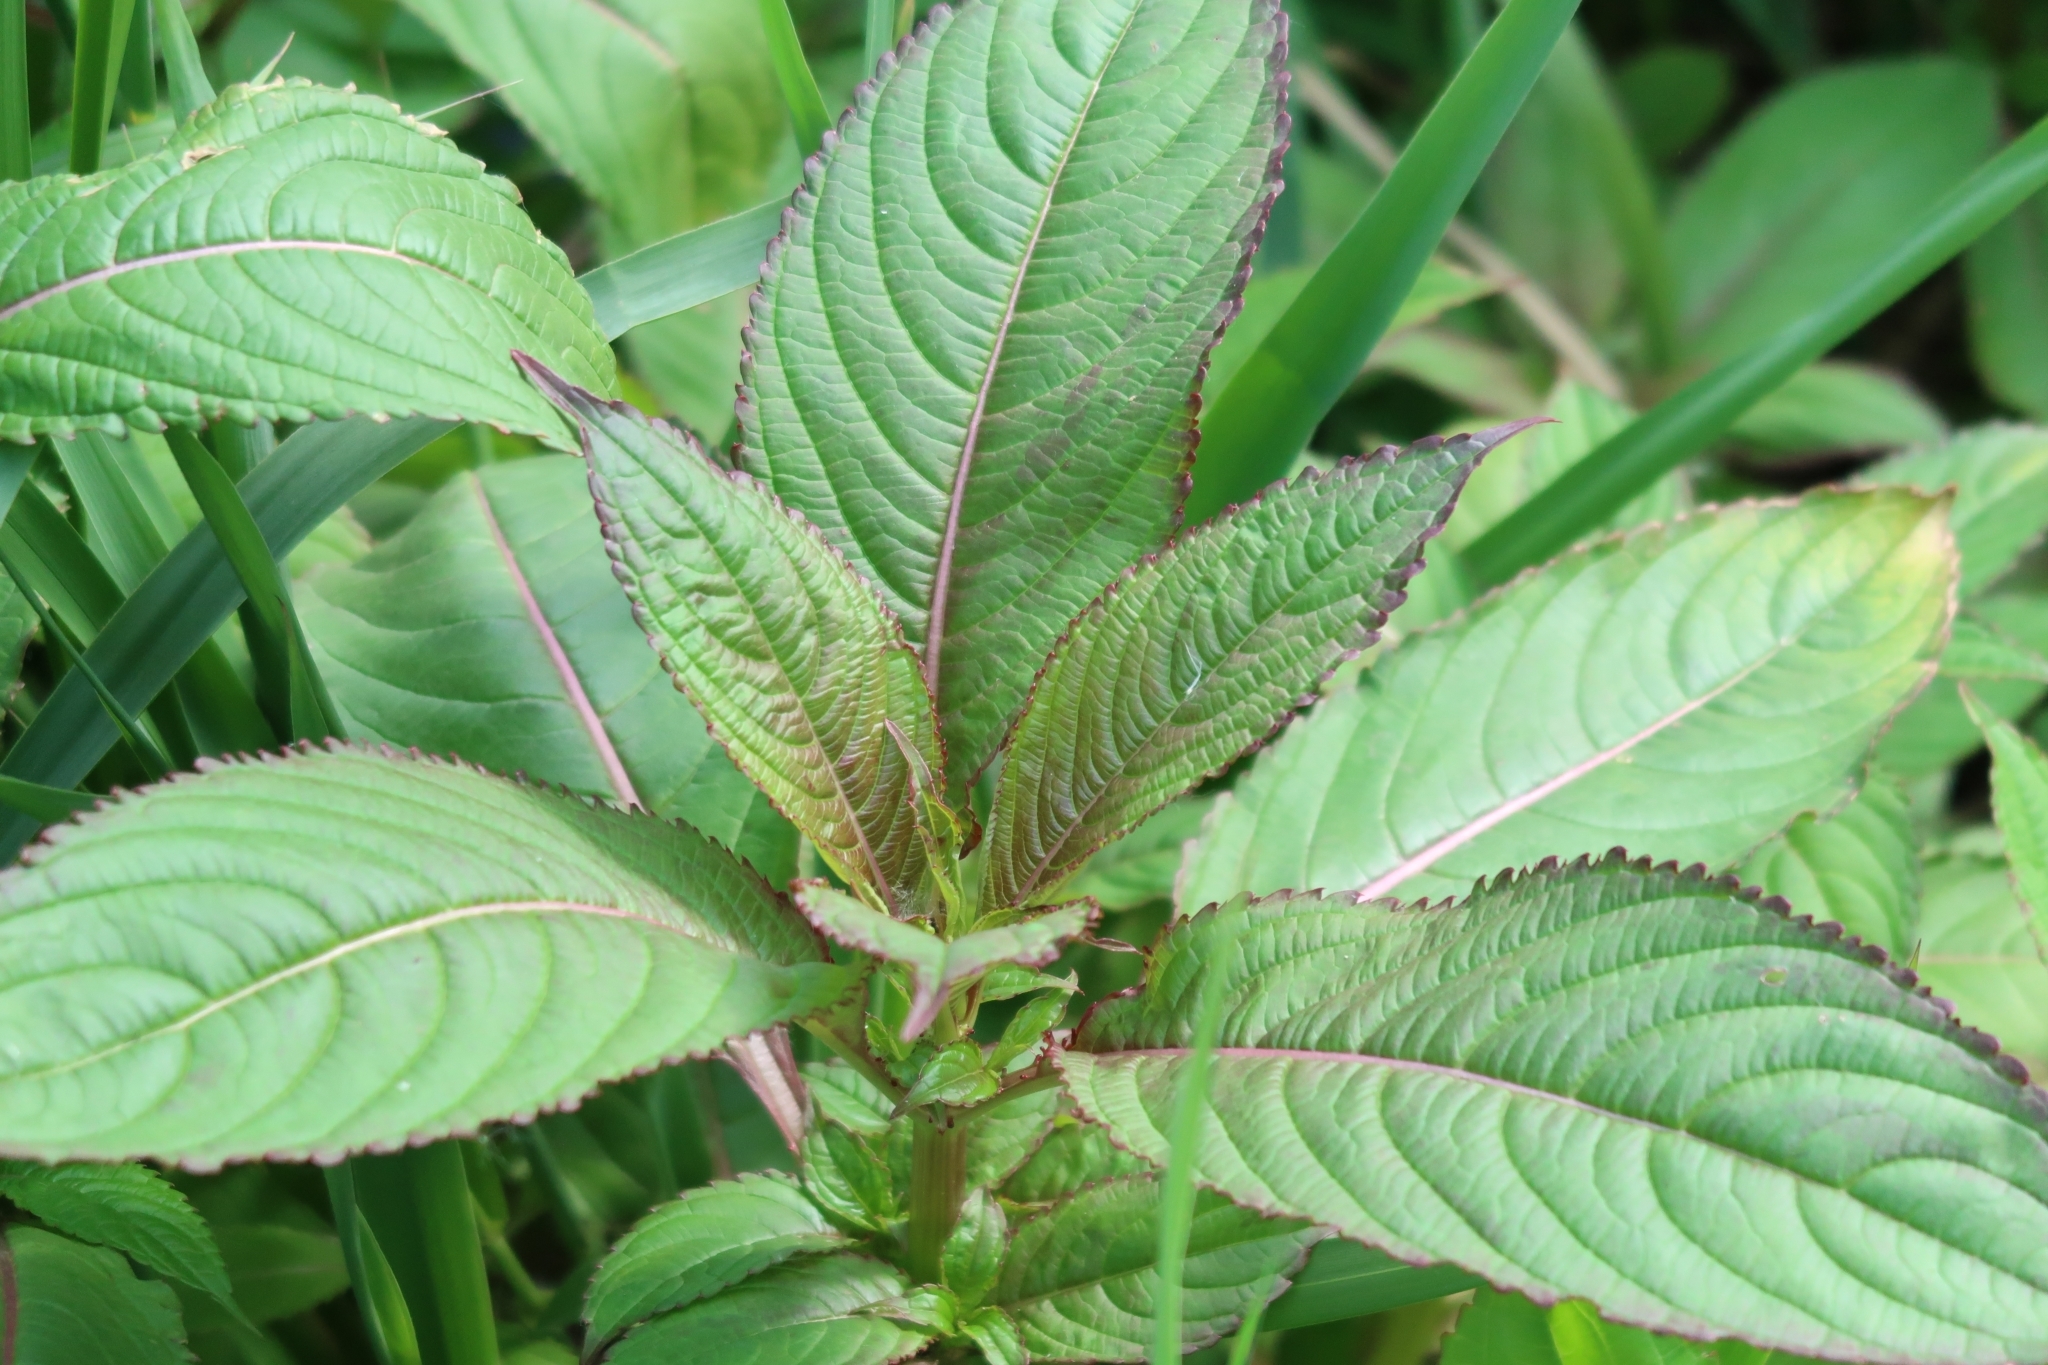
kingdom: Plantae
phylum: Tracheophyta
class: Magnoliopsida
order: Ericales
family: Balsaminaceae
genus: Impatiens
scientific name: Impatiens glandulifera
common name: Himalayan balsam
